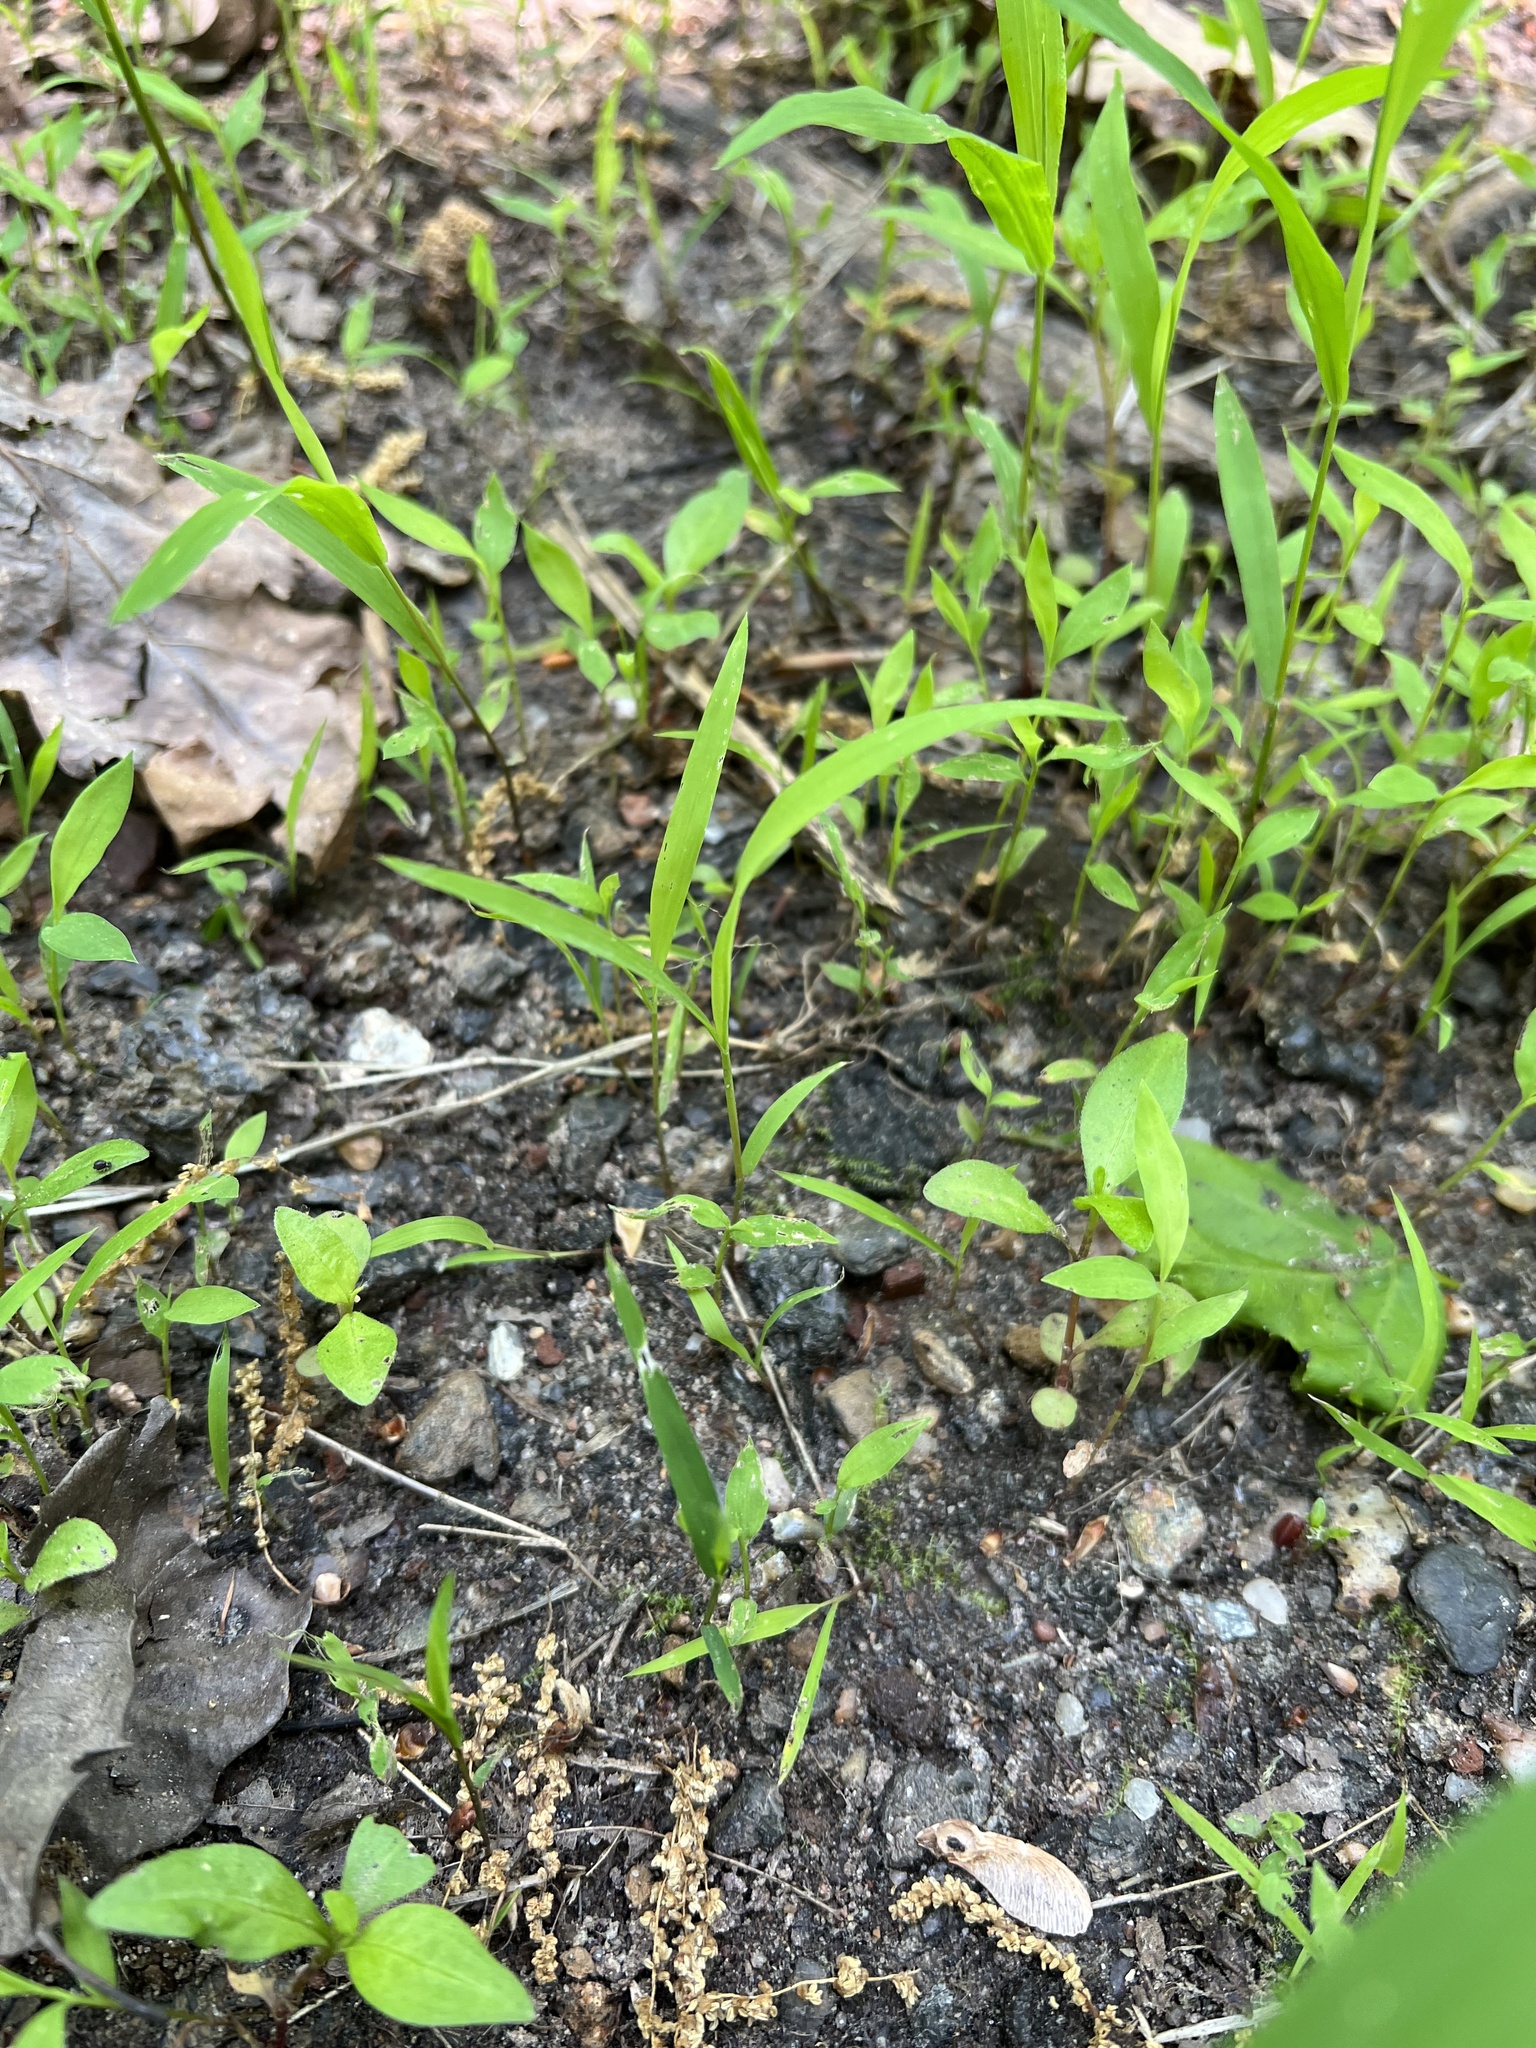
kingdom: Plantae
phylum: Tracheophyta
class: Liliopsida
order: Poales
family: Poaceae
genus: Microstegium
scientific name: Microstegium vimineum
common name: Japanese stiltgrass
